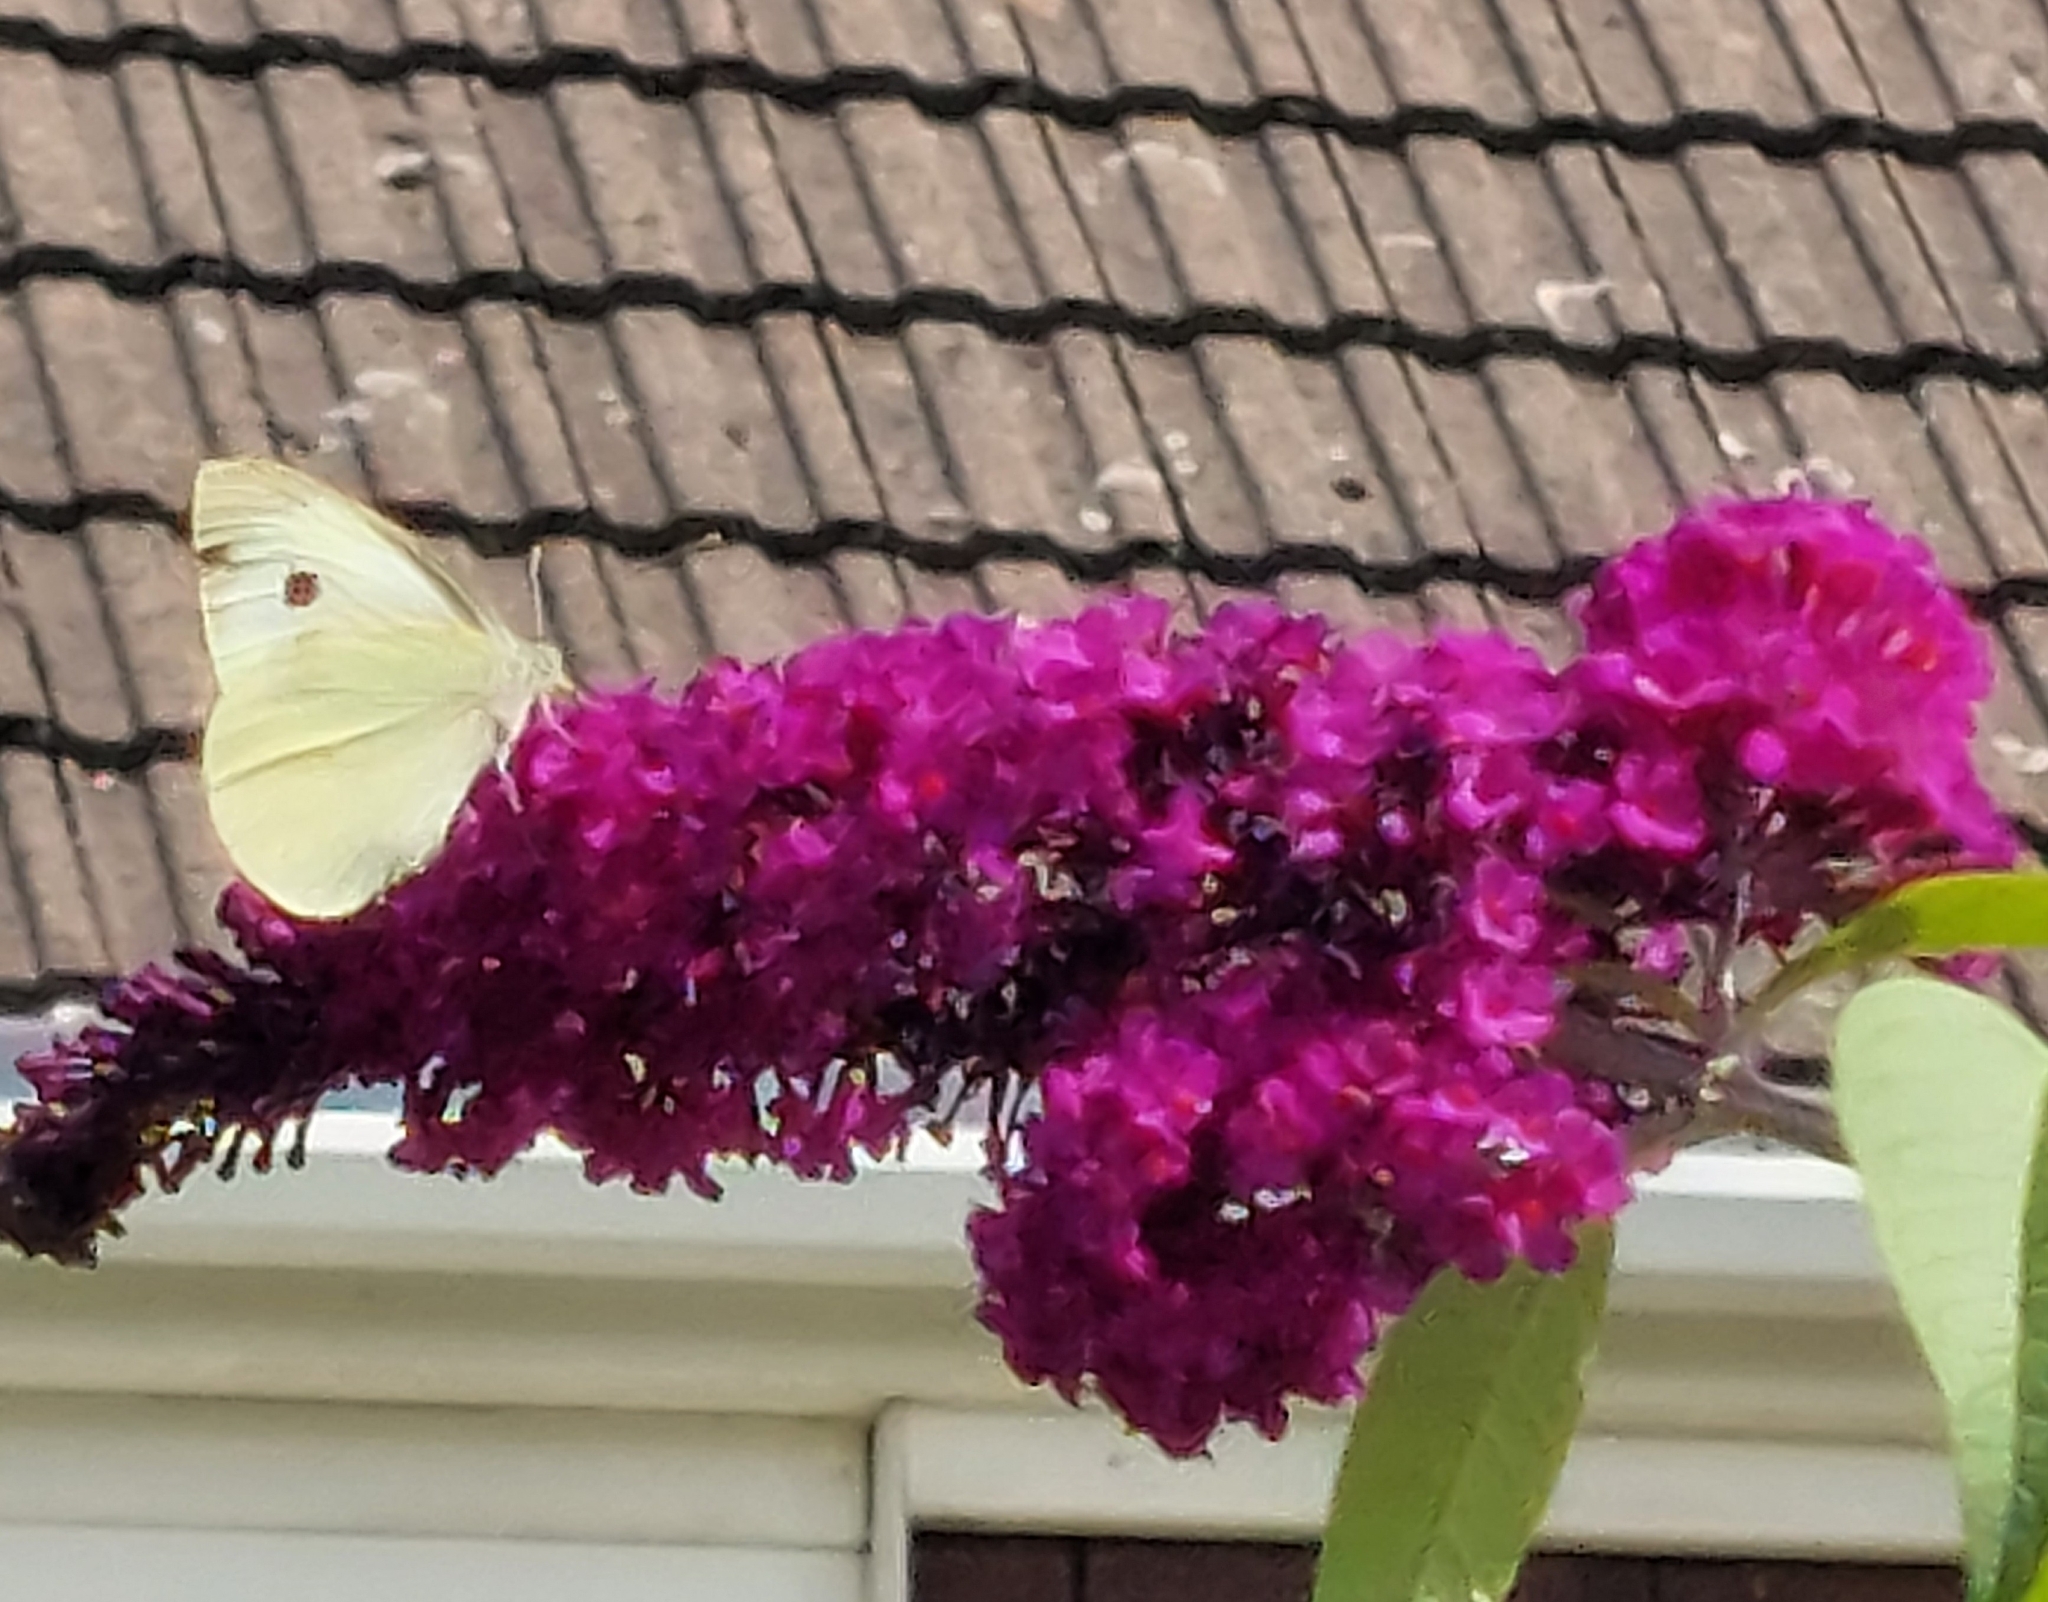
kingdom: Animalia
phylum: Arthropoda
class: Insecta
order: Lepidoptera
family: Pieridae
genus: Pieris
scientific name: Pieris brassicae
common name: Large white
